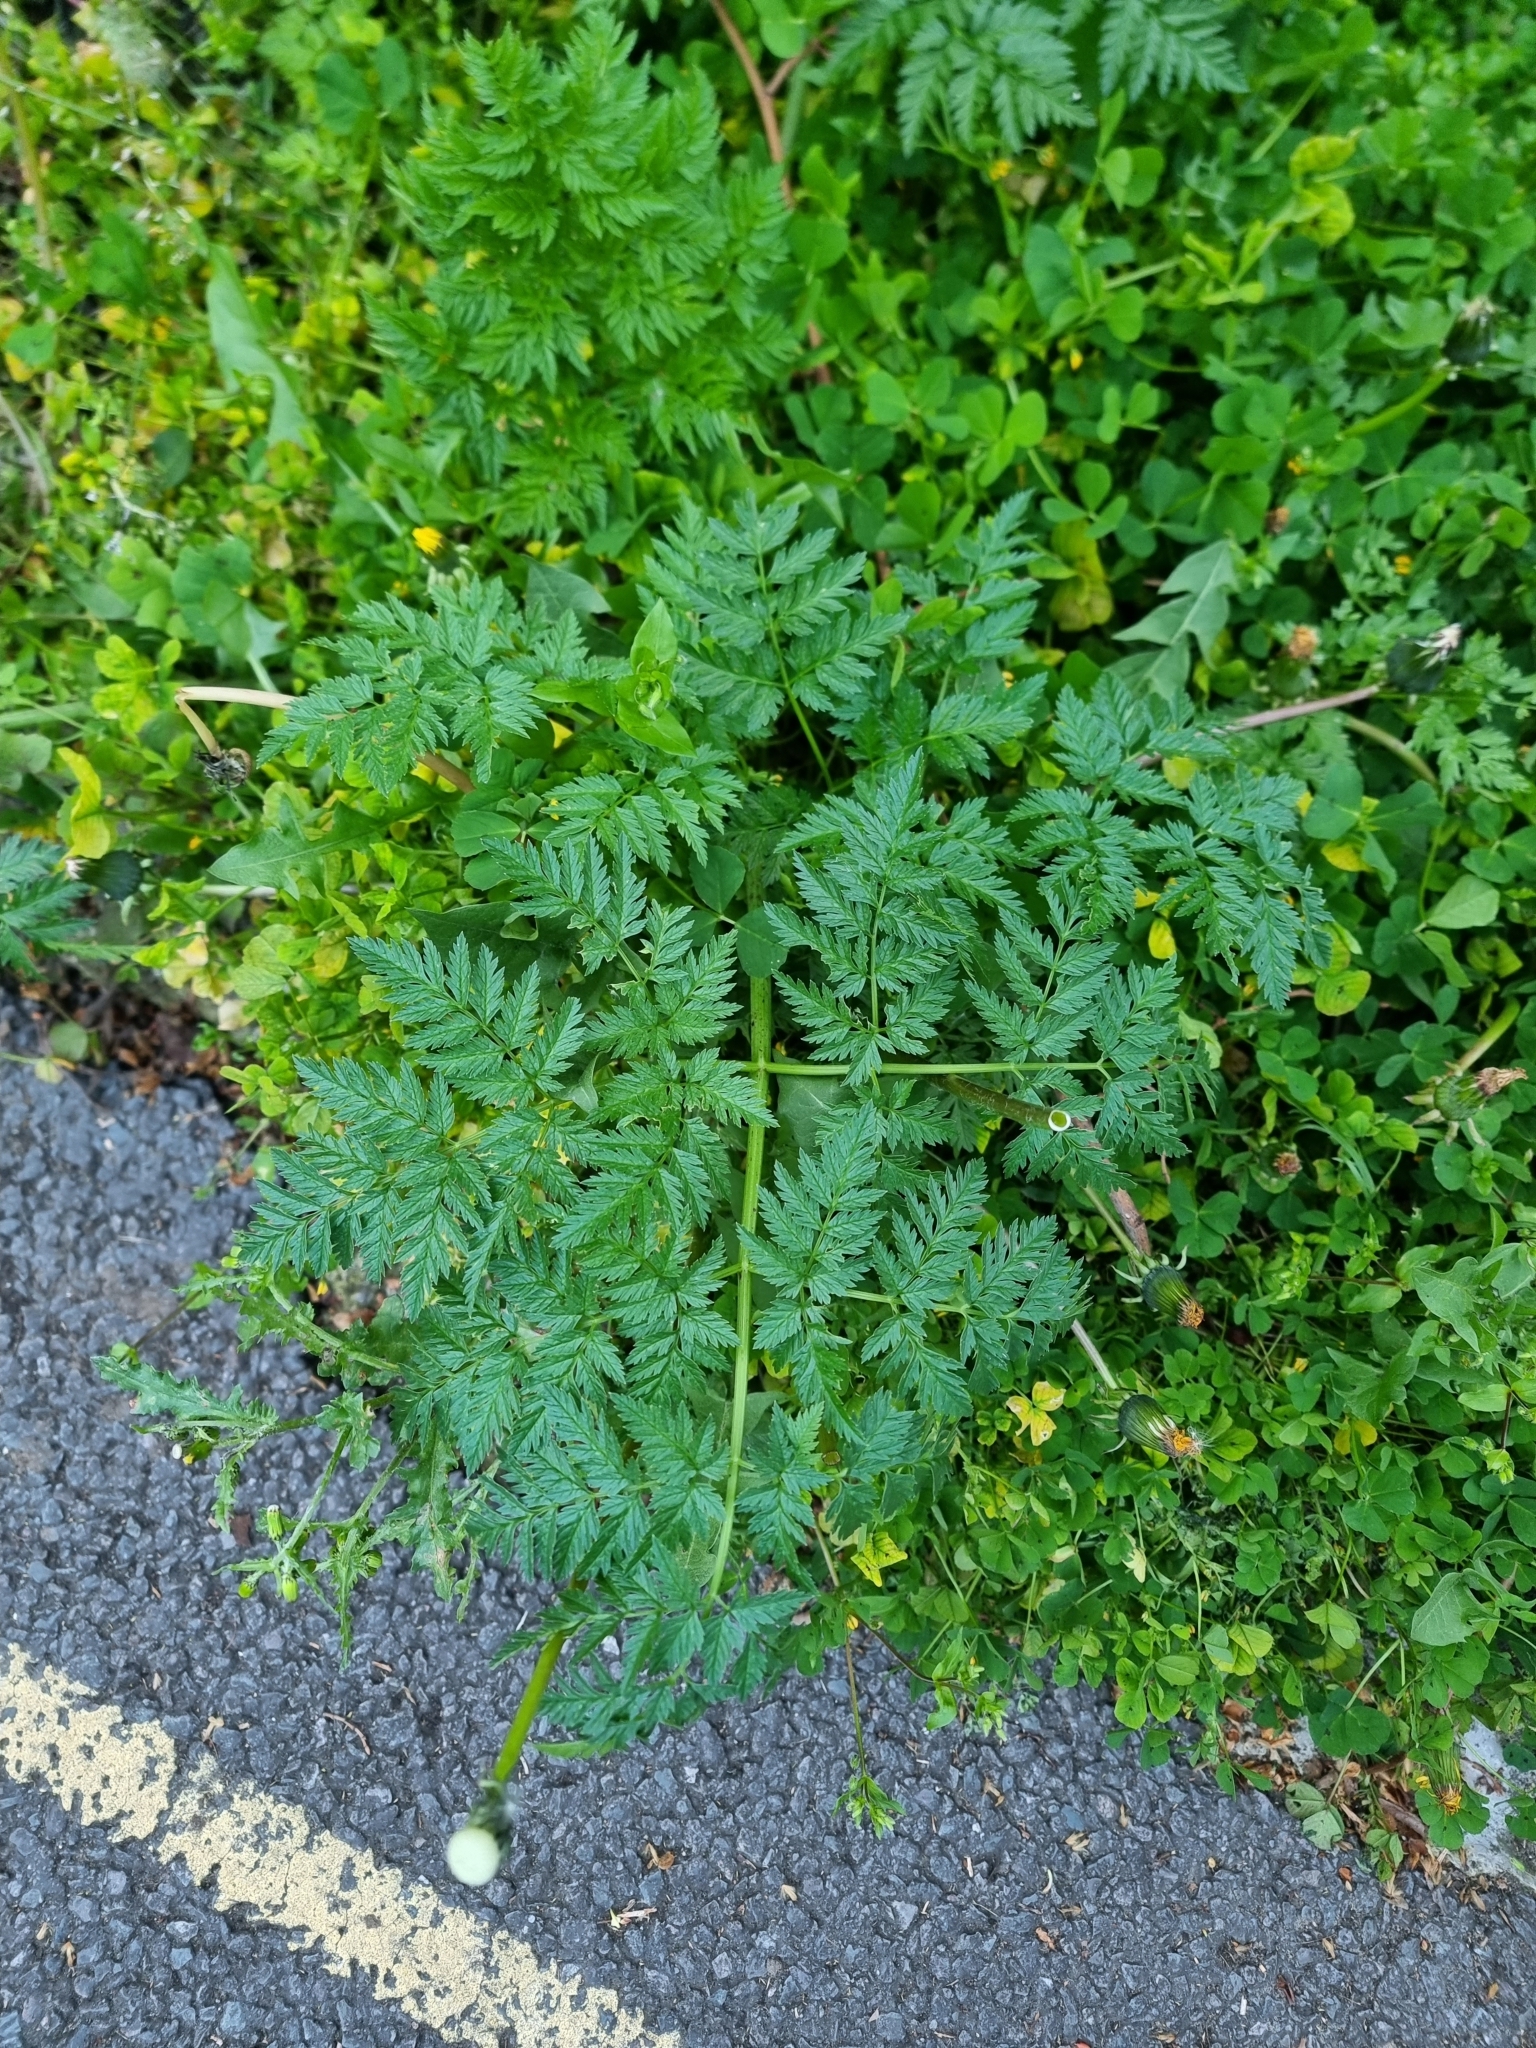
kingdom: Plantae
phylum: Tracheophyta
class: Magnoliopsida
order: Apiales
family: Apiaceae
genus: Conium
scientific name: Conium maculatum
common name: Hemlock
